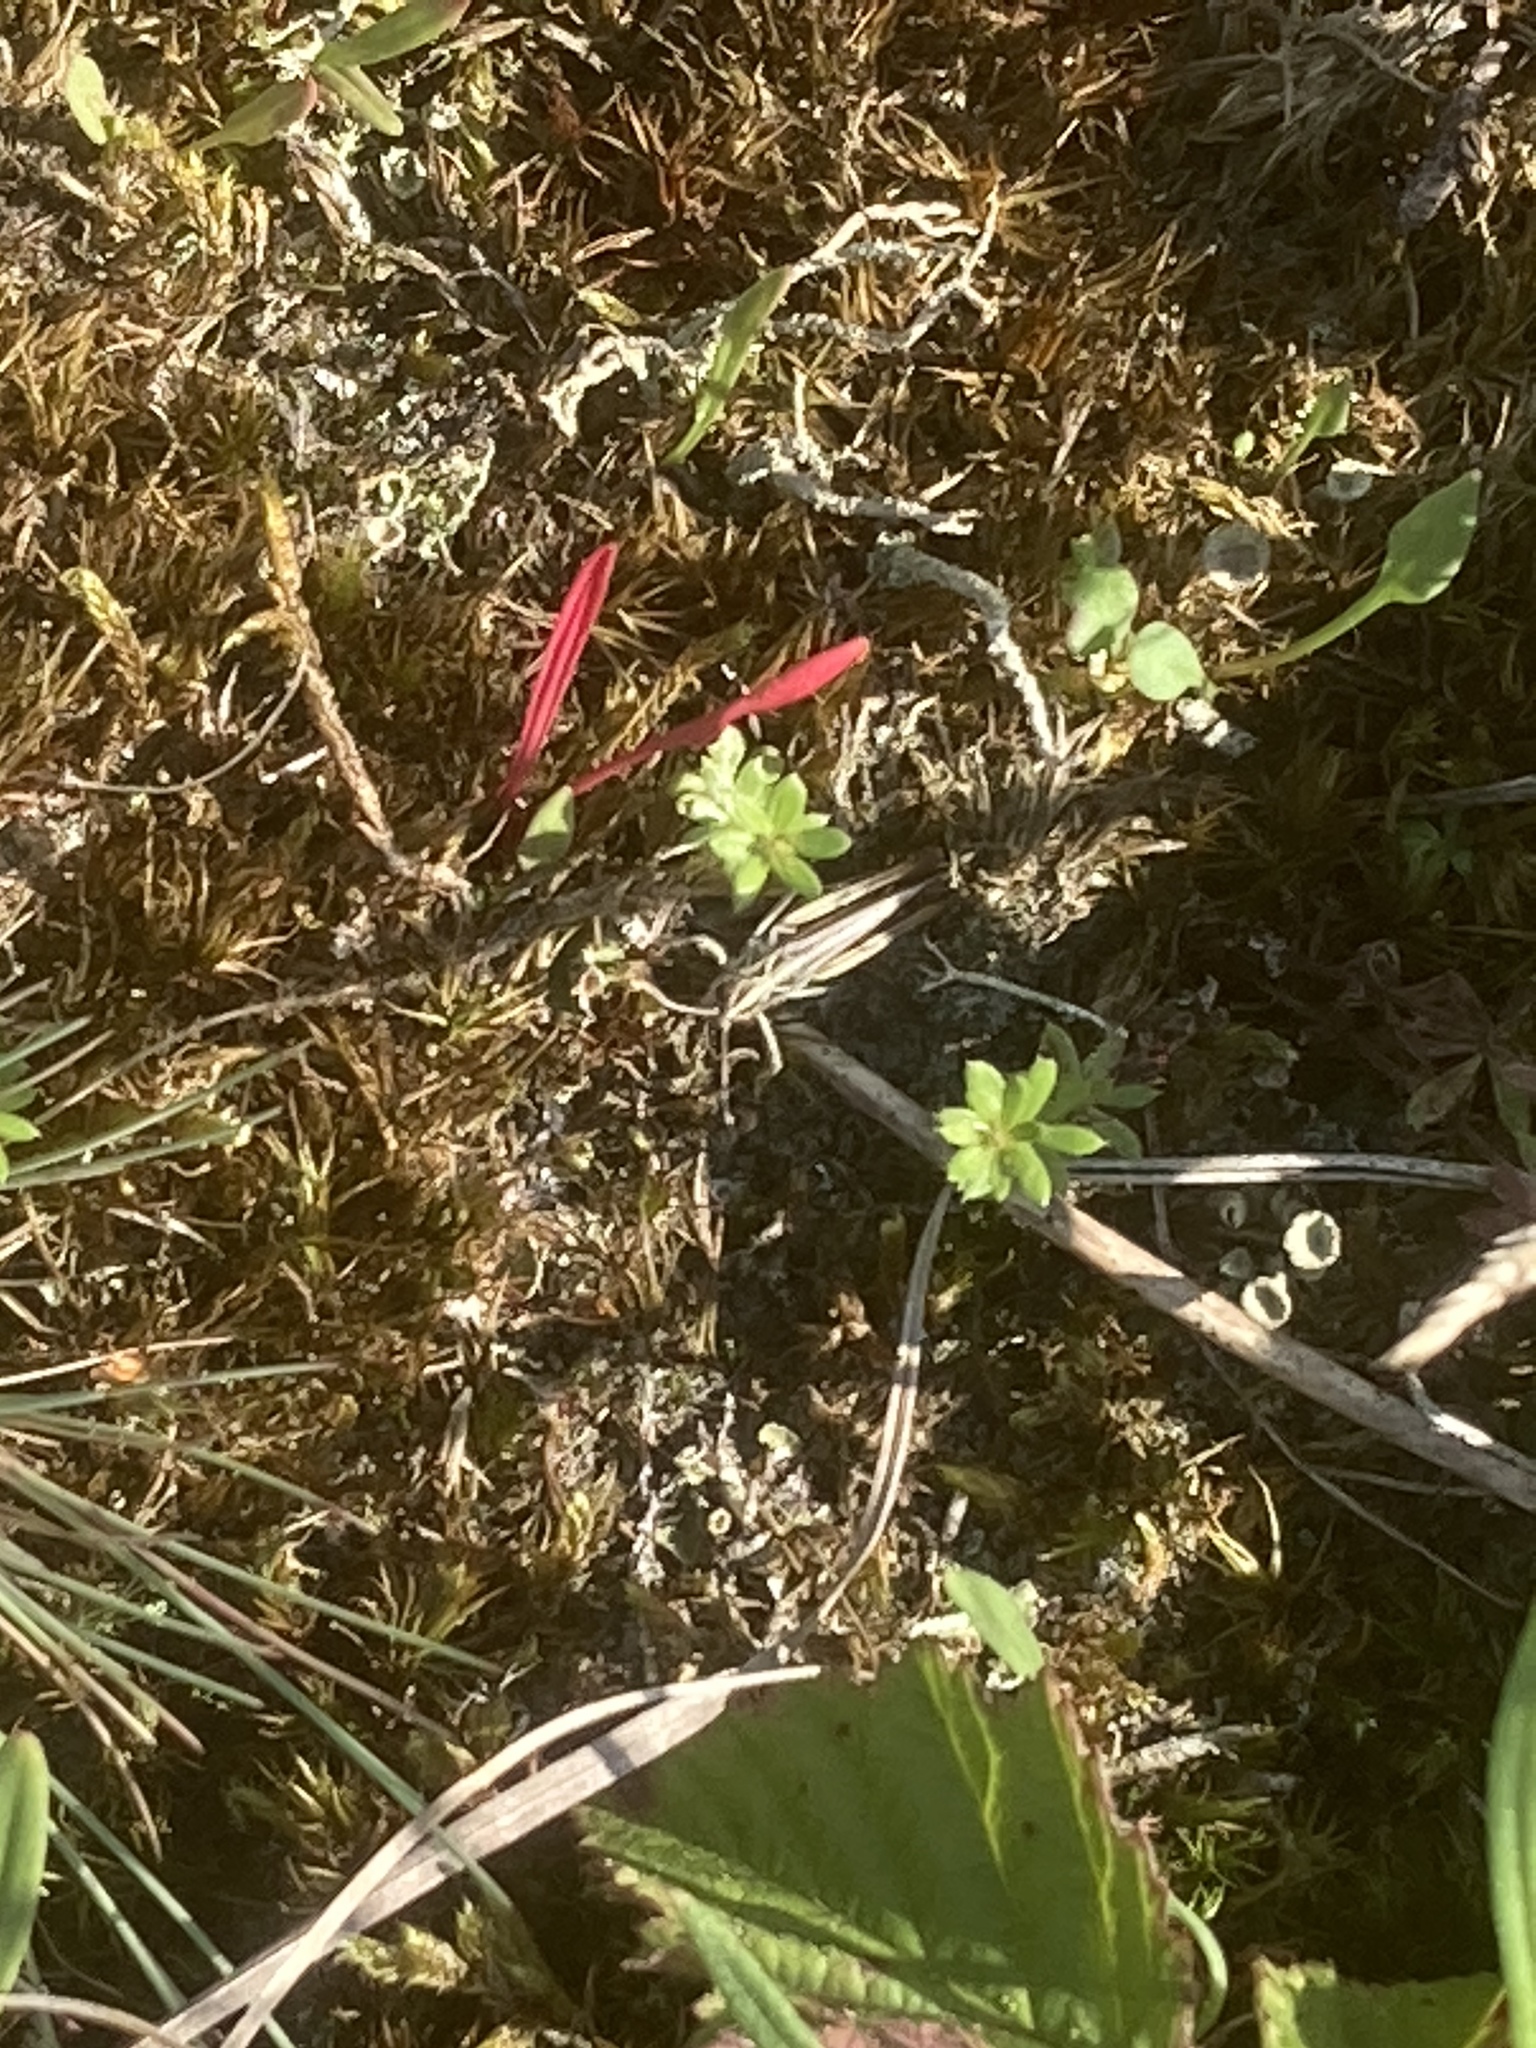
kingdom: Animalia
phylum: Arthropoda
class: Insecta
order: Orthoptera
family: Acrididae
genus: Myrmeleotettix
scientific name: Myrmeleotettix maculatus
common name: Mottled grasshopper
